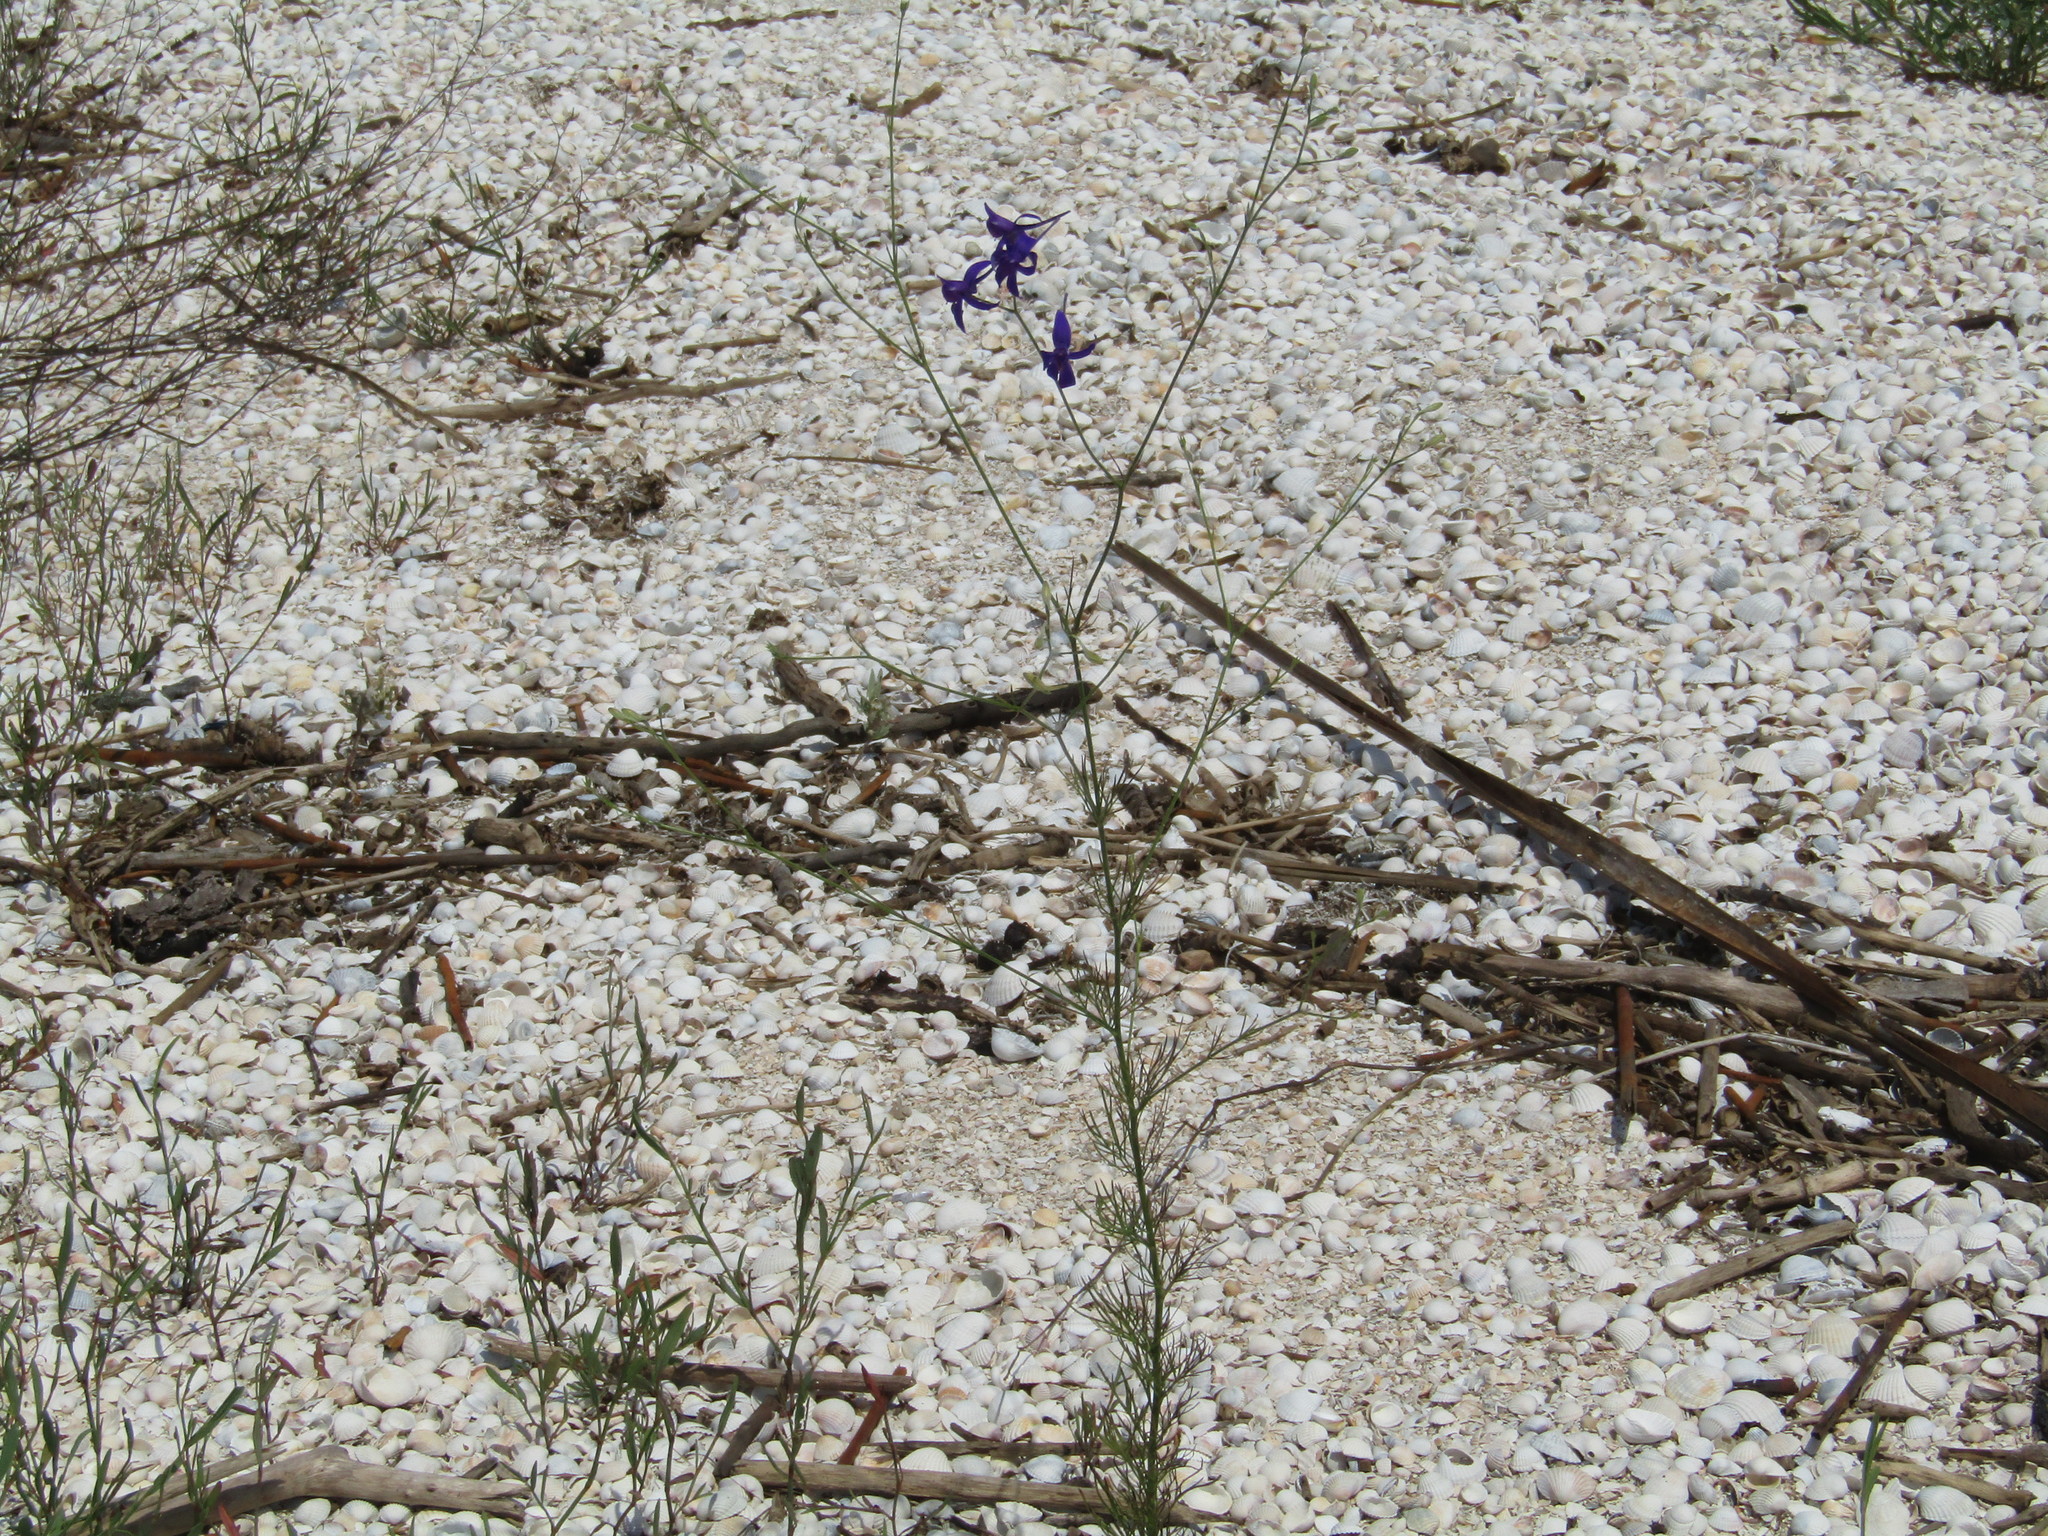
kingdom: Plantae
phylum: Tracheophyta
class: Magnoliopsida
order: Ranunculales
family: Ranunculaceae
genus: Delphinium
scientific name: Delphinium consolida
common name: Branching larkspur
